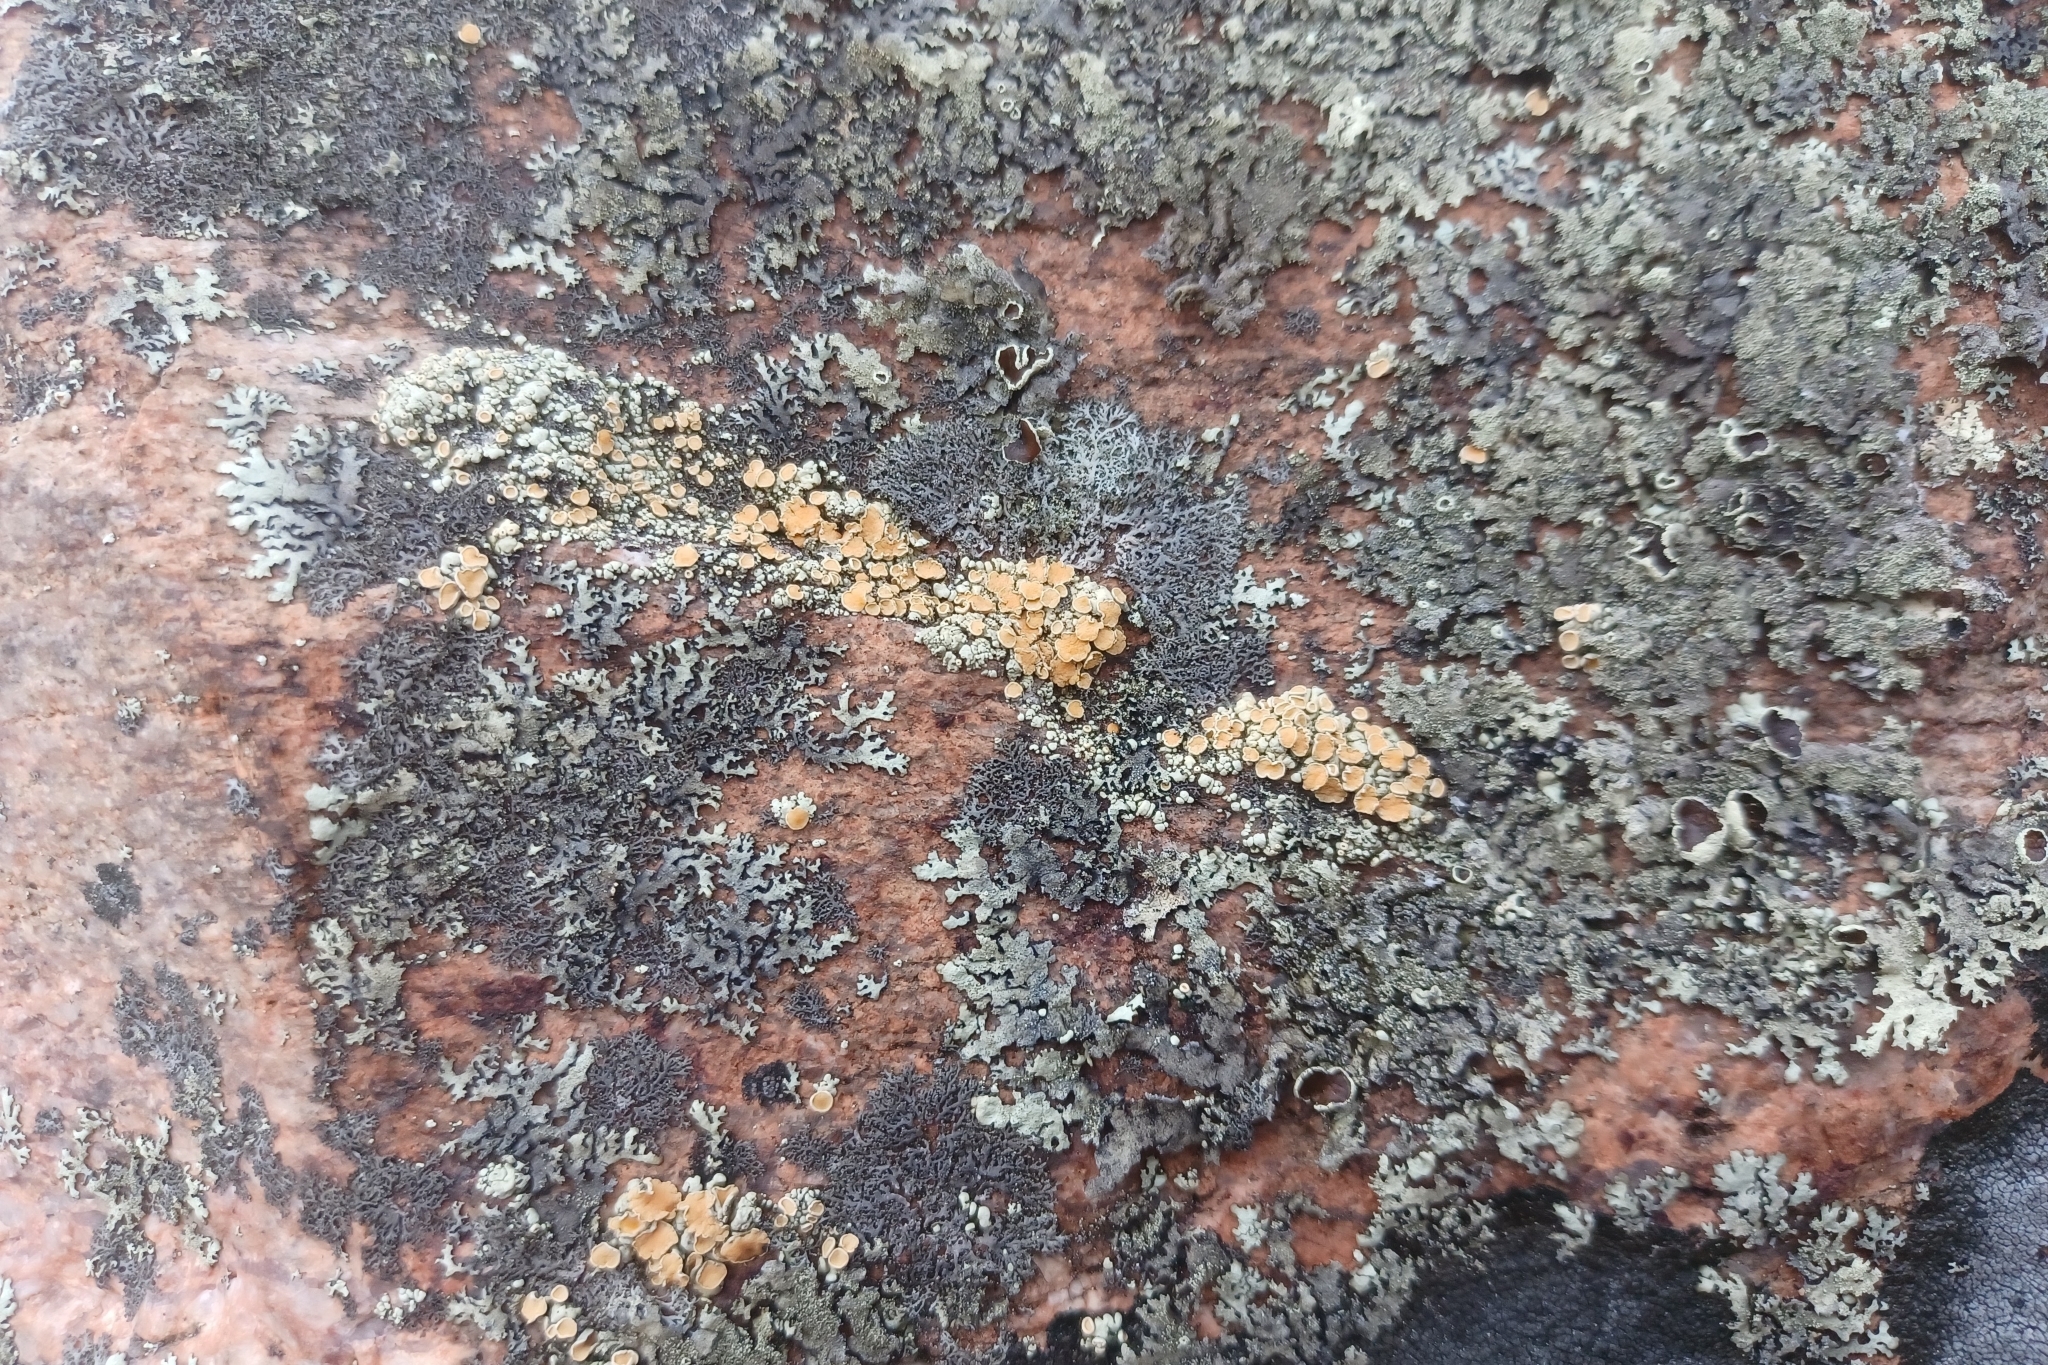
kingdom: Fungi
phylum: Ascomycota
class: Lecanoromycetes
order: Lecanorales
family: Lecanoraceae
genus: Sedelnikovaea
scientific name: Sedelnikovaea subdiscrepans
